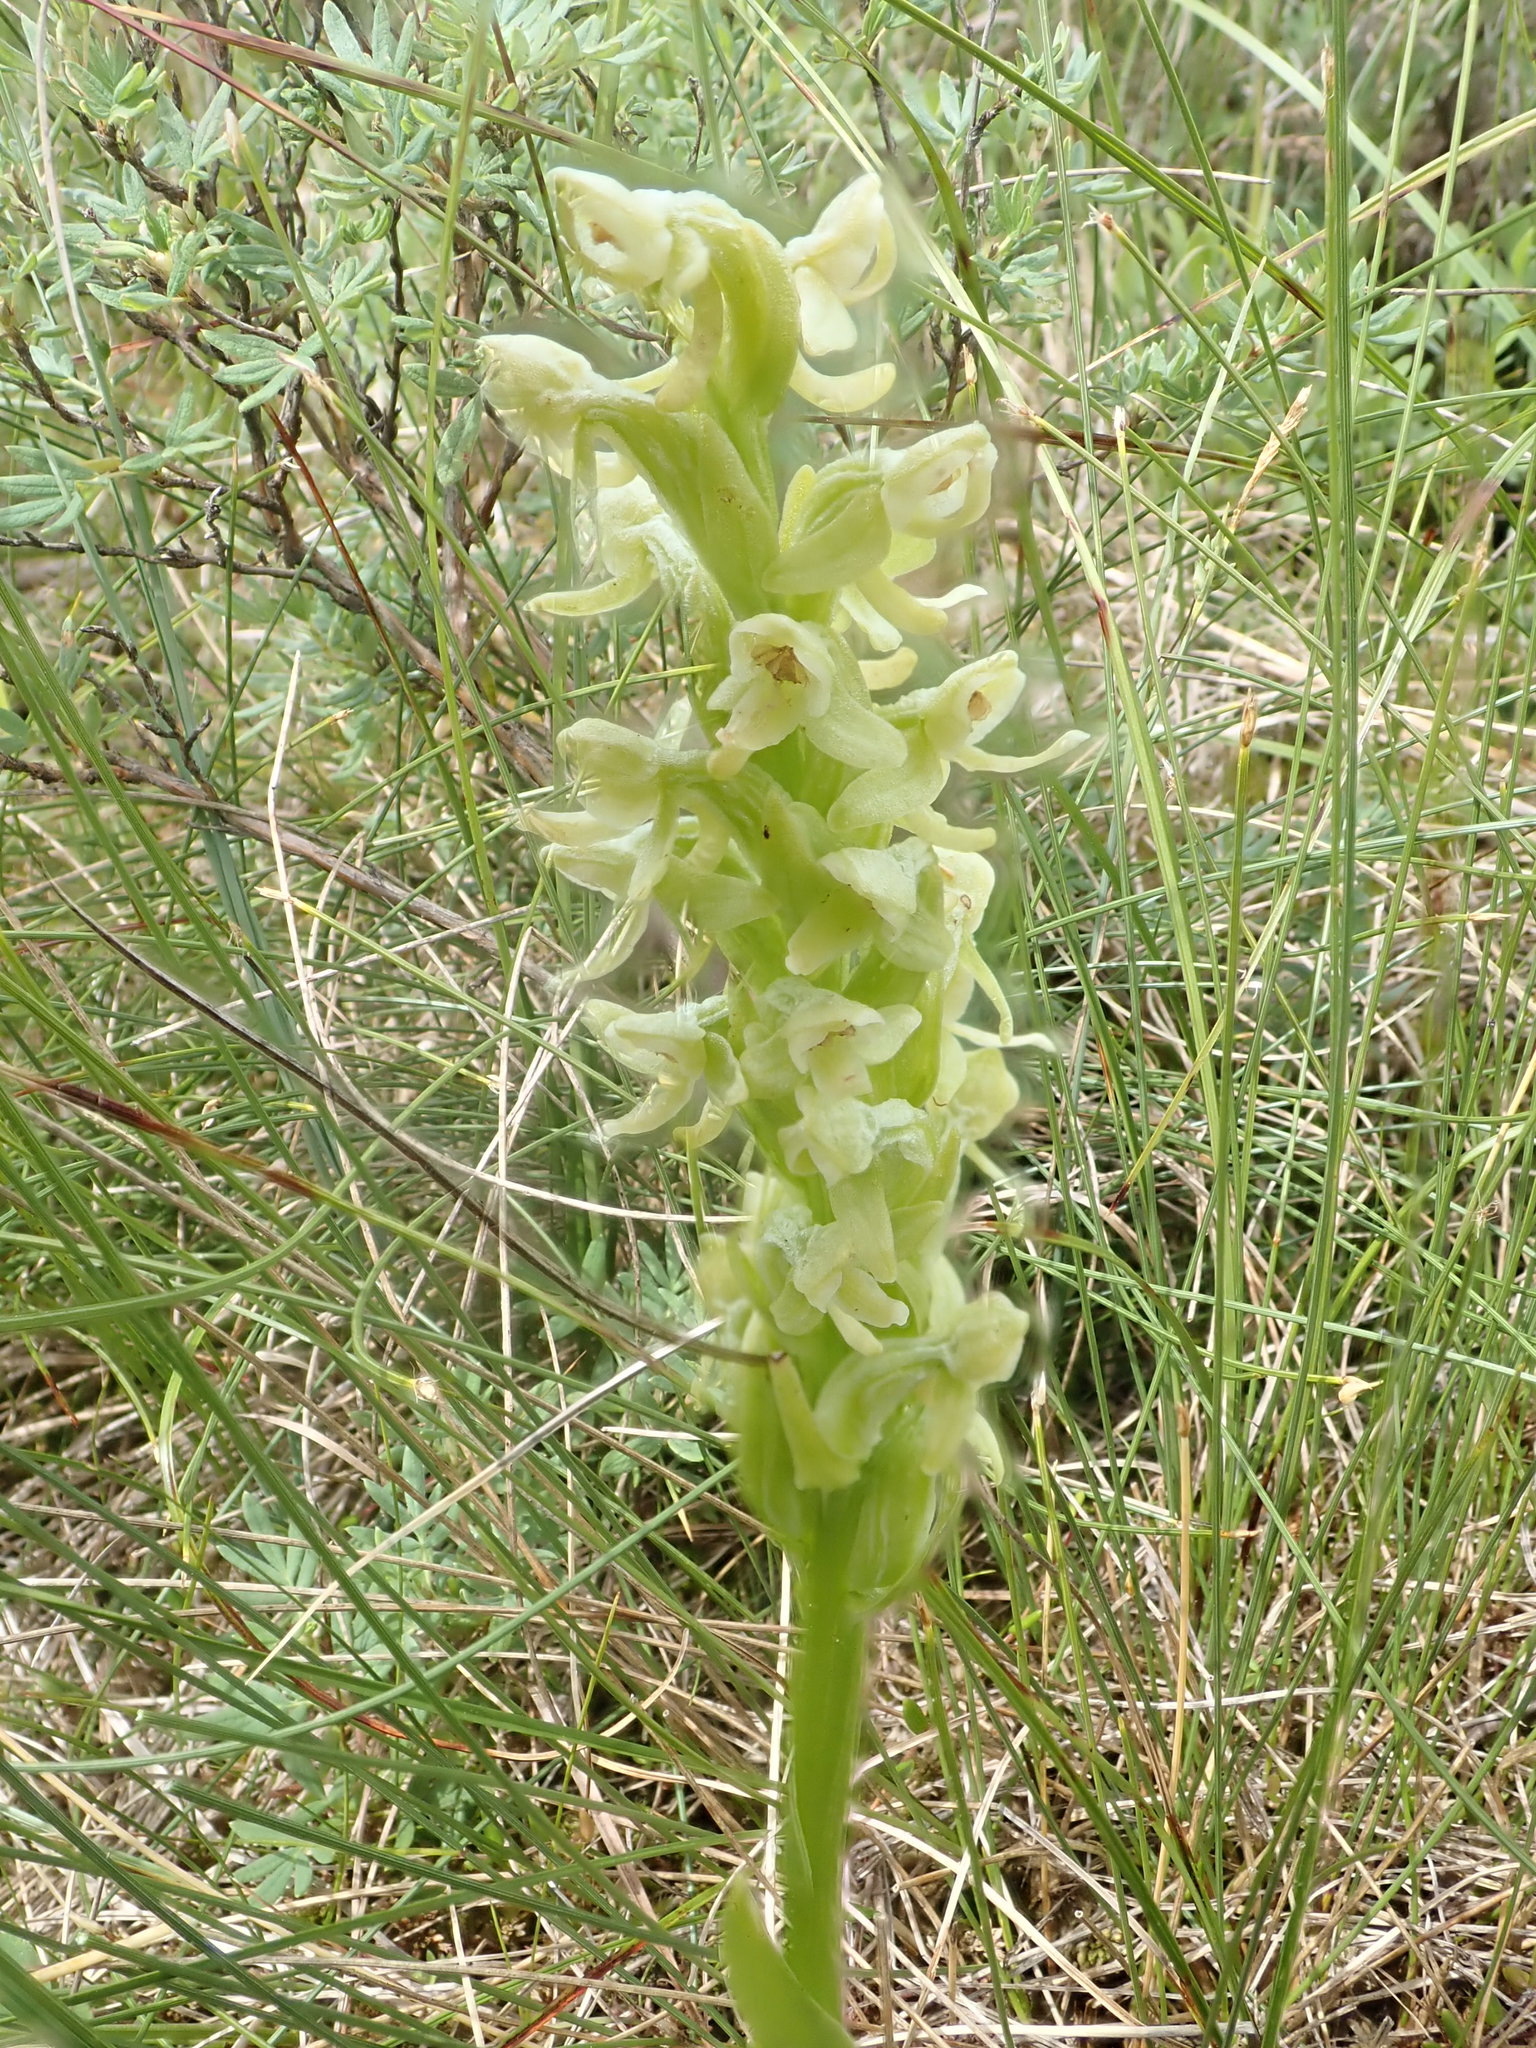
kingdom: Plantae
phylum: Tracheophyta
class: Liliopsida
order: Asparagales
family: Orchidaceae
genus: Platanthera
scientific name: Platanthera huronensis
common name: Fragrant green orchid
